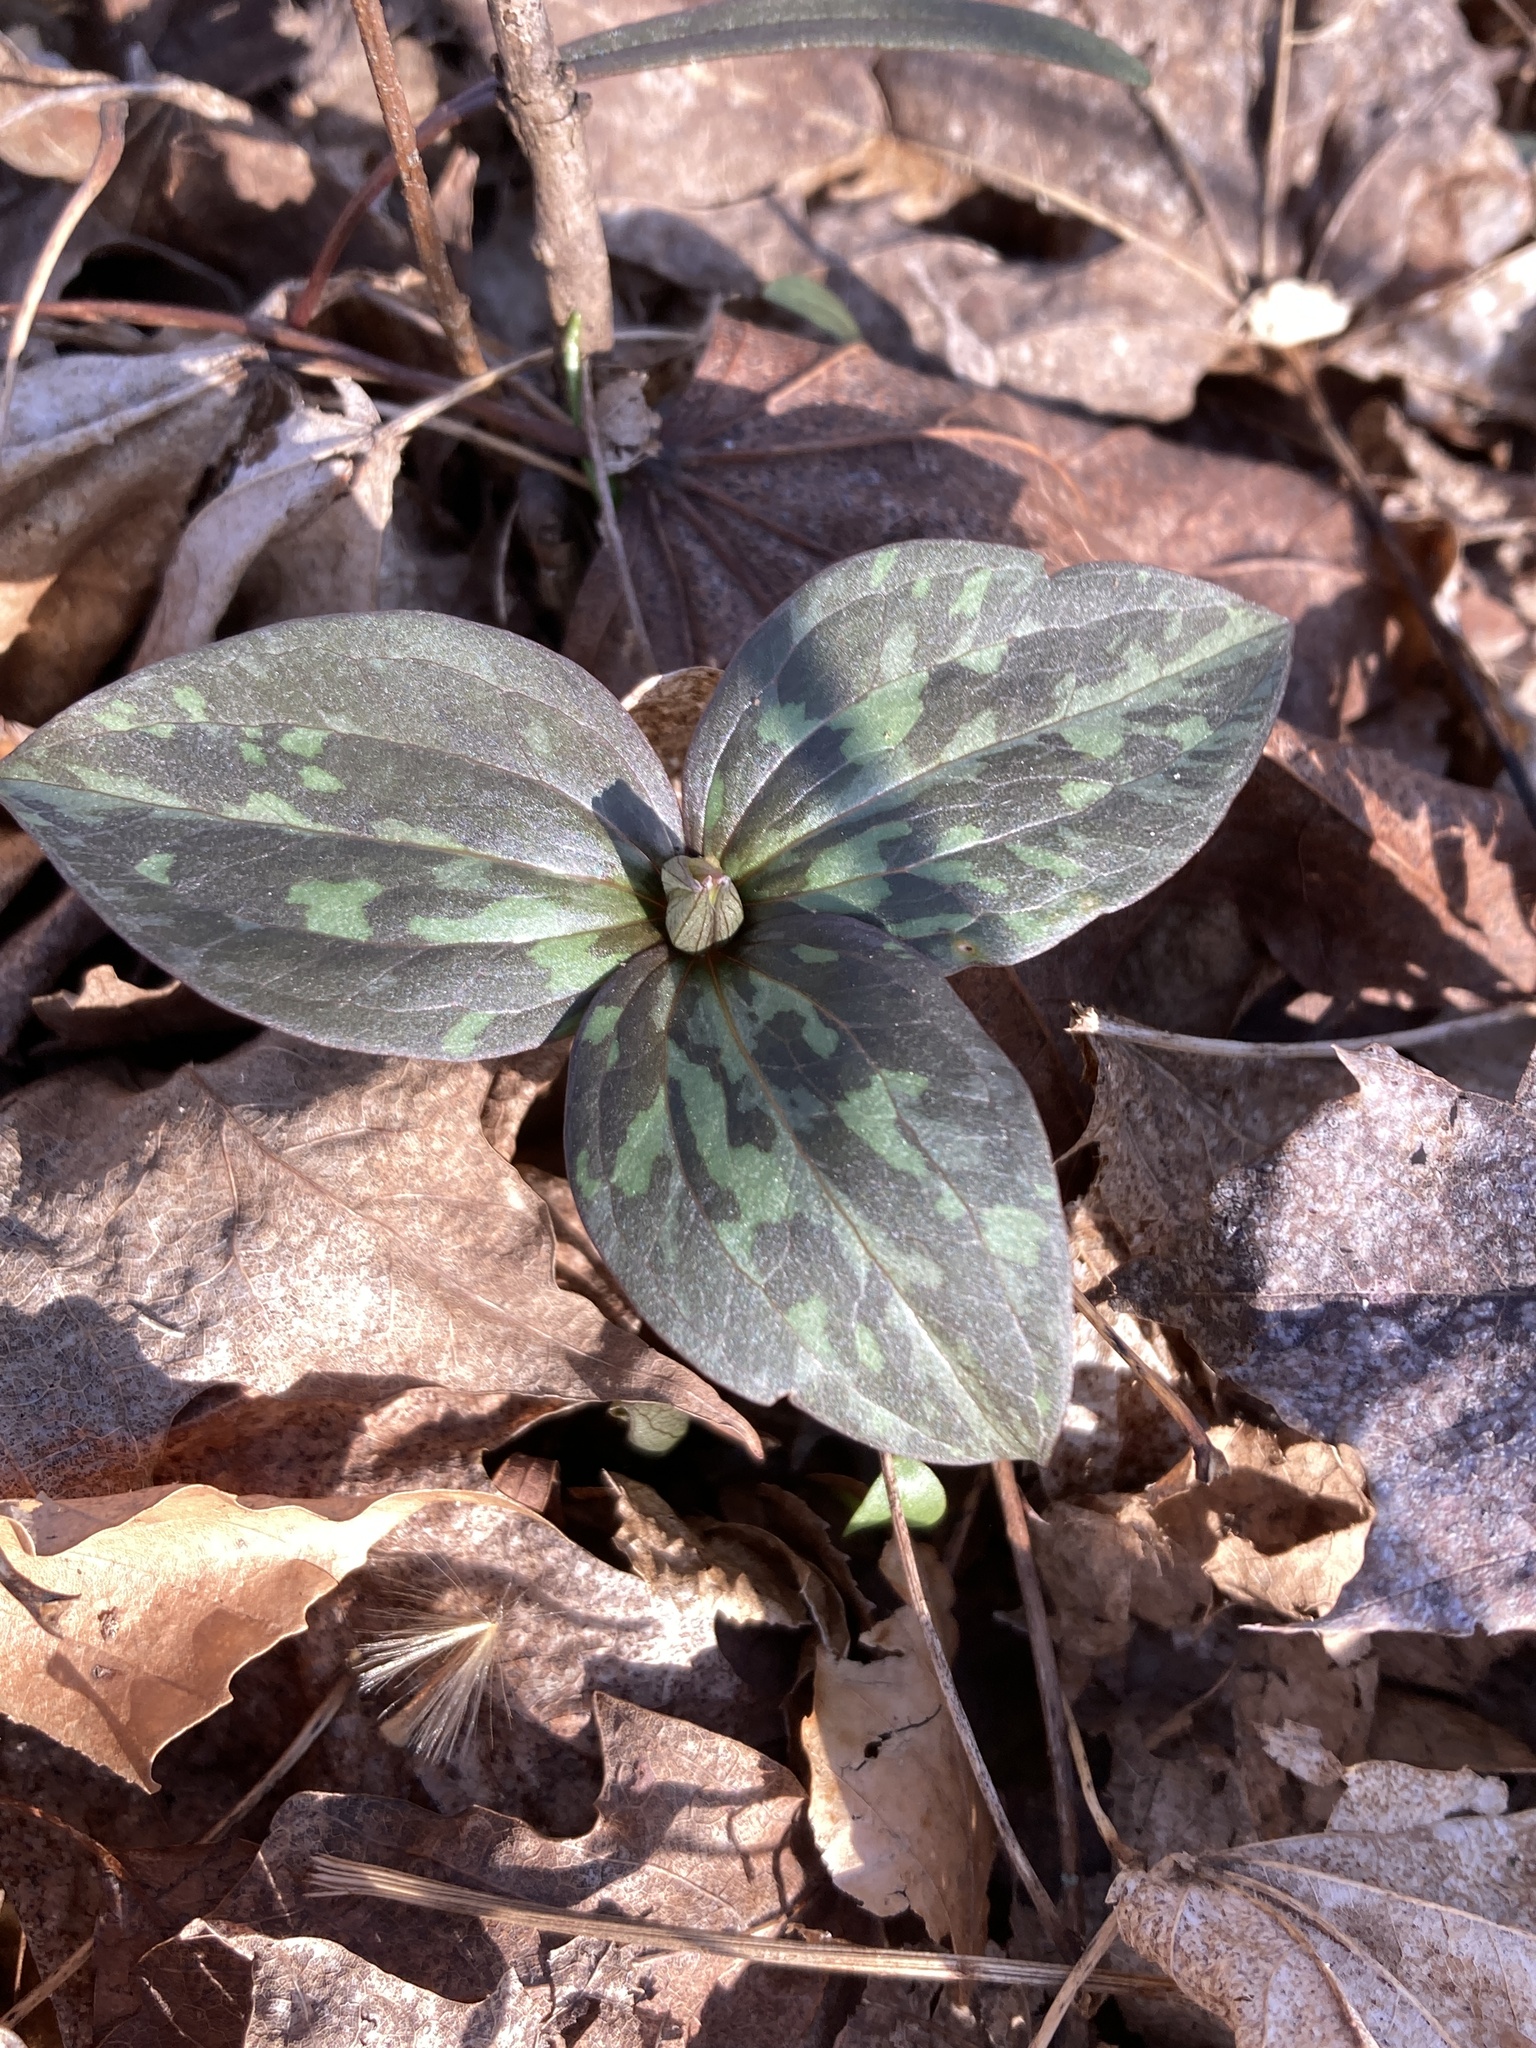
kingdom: Plantae
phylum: Tracheophyta
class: Liliopsida
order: Liliales
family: Melanthiaceae
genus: Trillium
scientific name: Trillium recurvatum
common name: Bloody butcher
